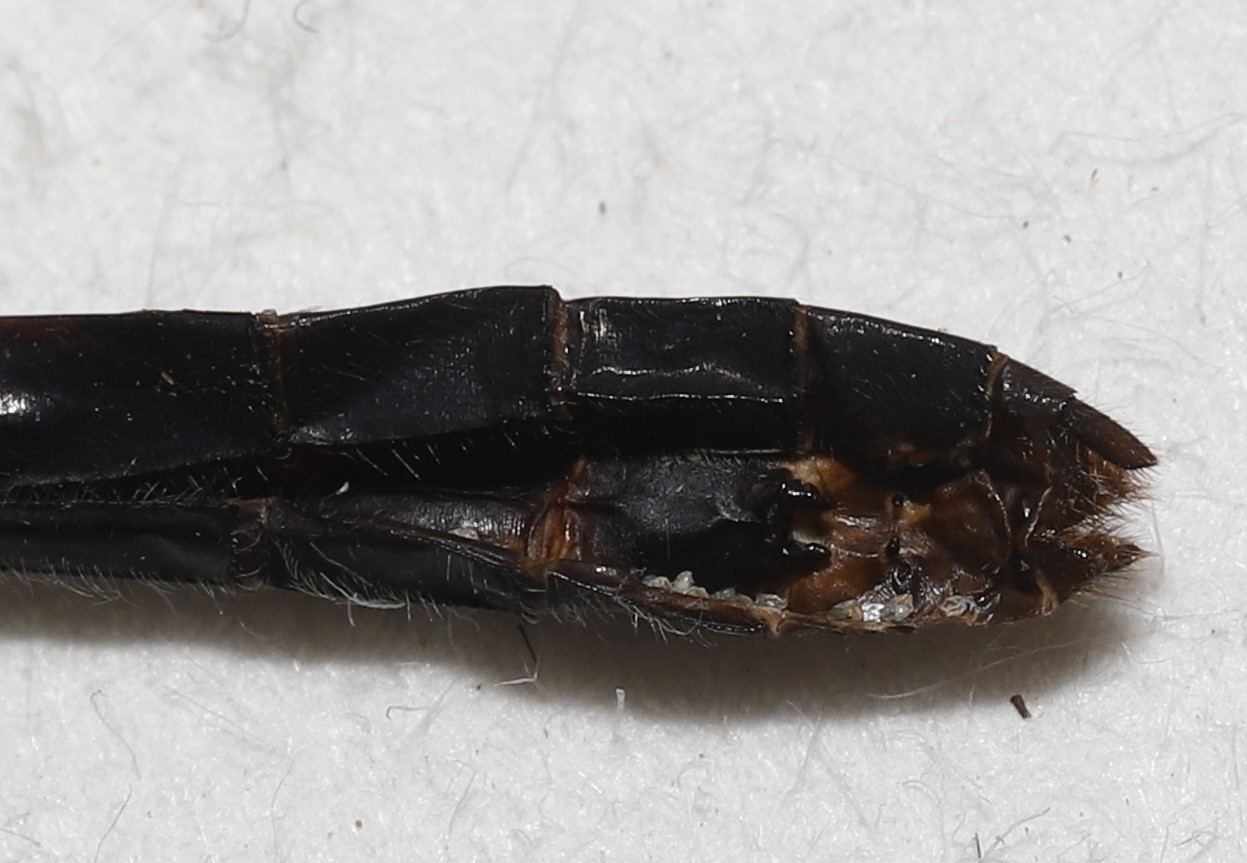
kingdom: Animalia
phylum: Arthropoda
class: Insecta
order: Odonata
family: Libellulidae
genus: Leucorrhinia
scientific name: Leucorrhinia frigida
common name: Frosted whiteface
